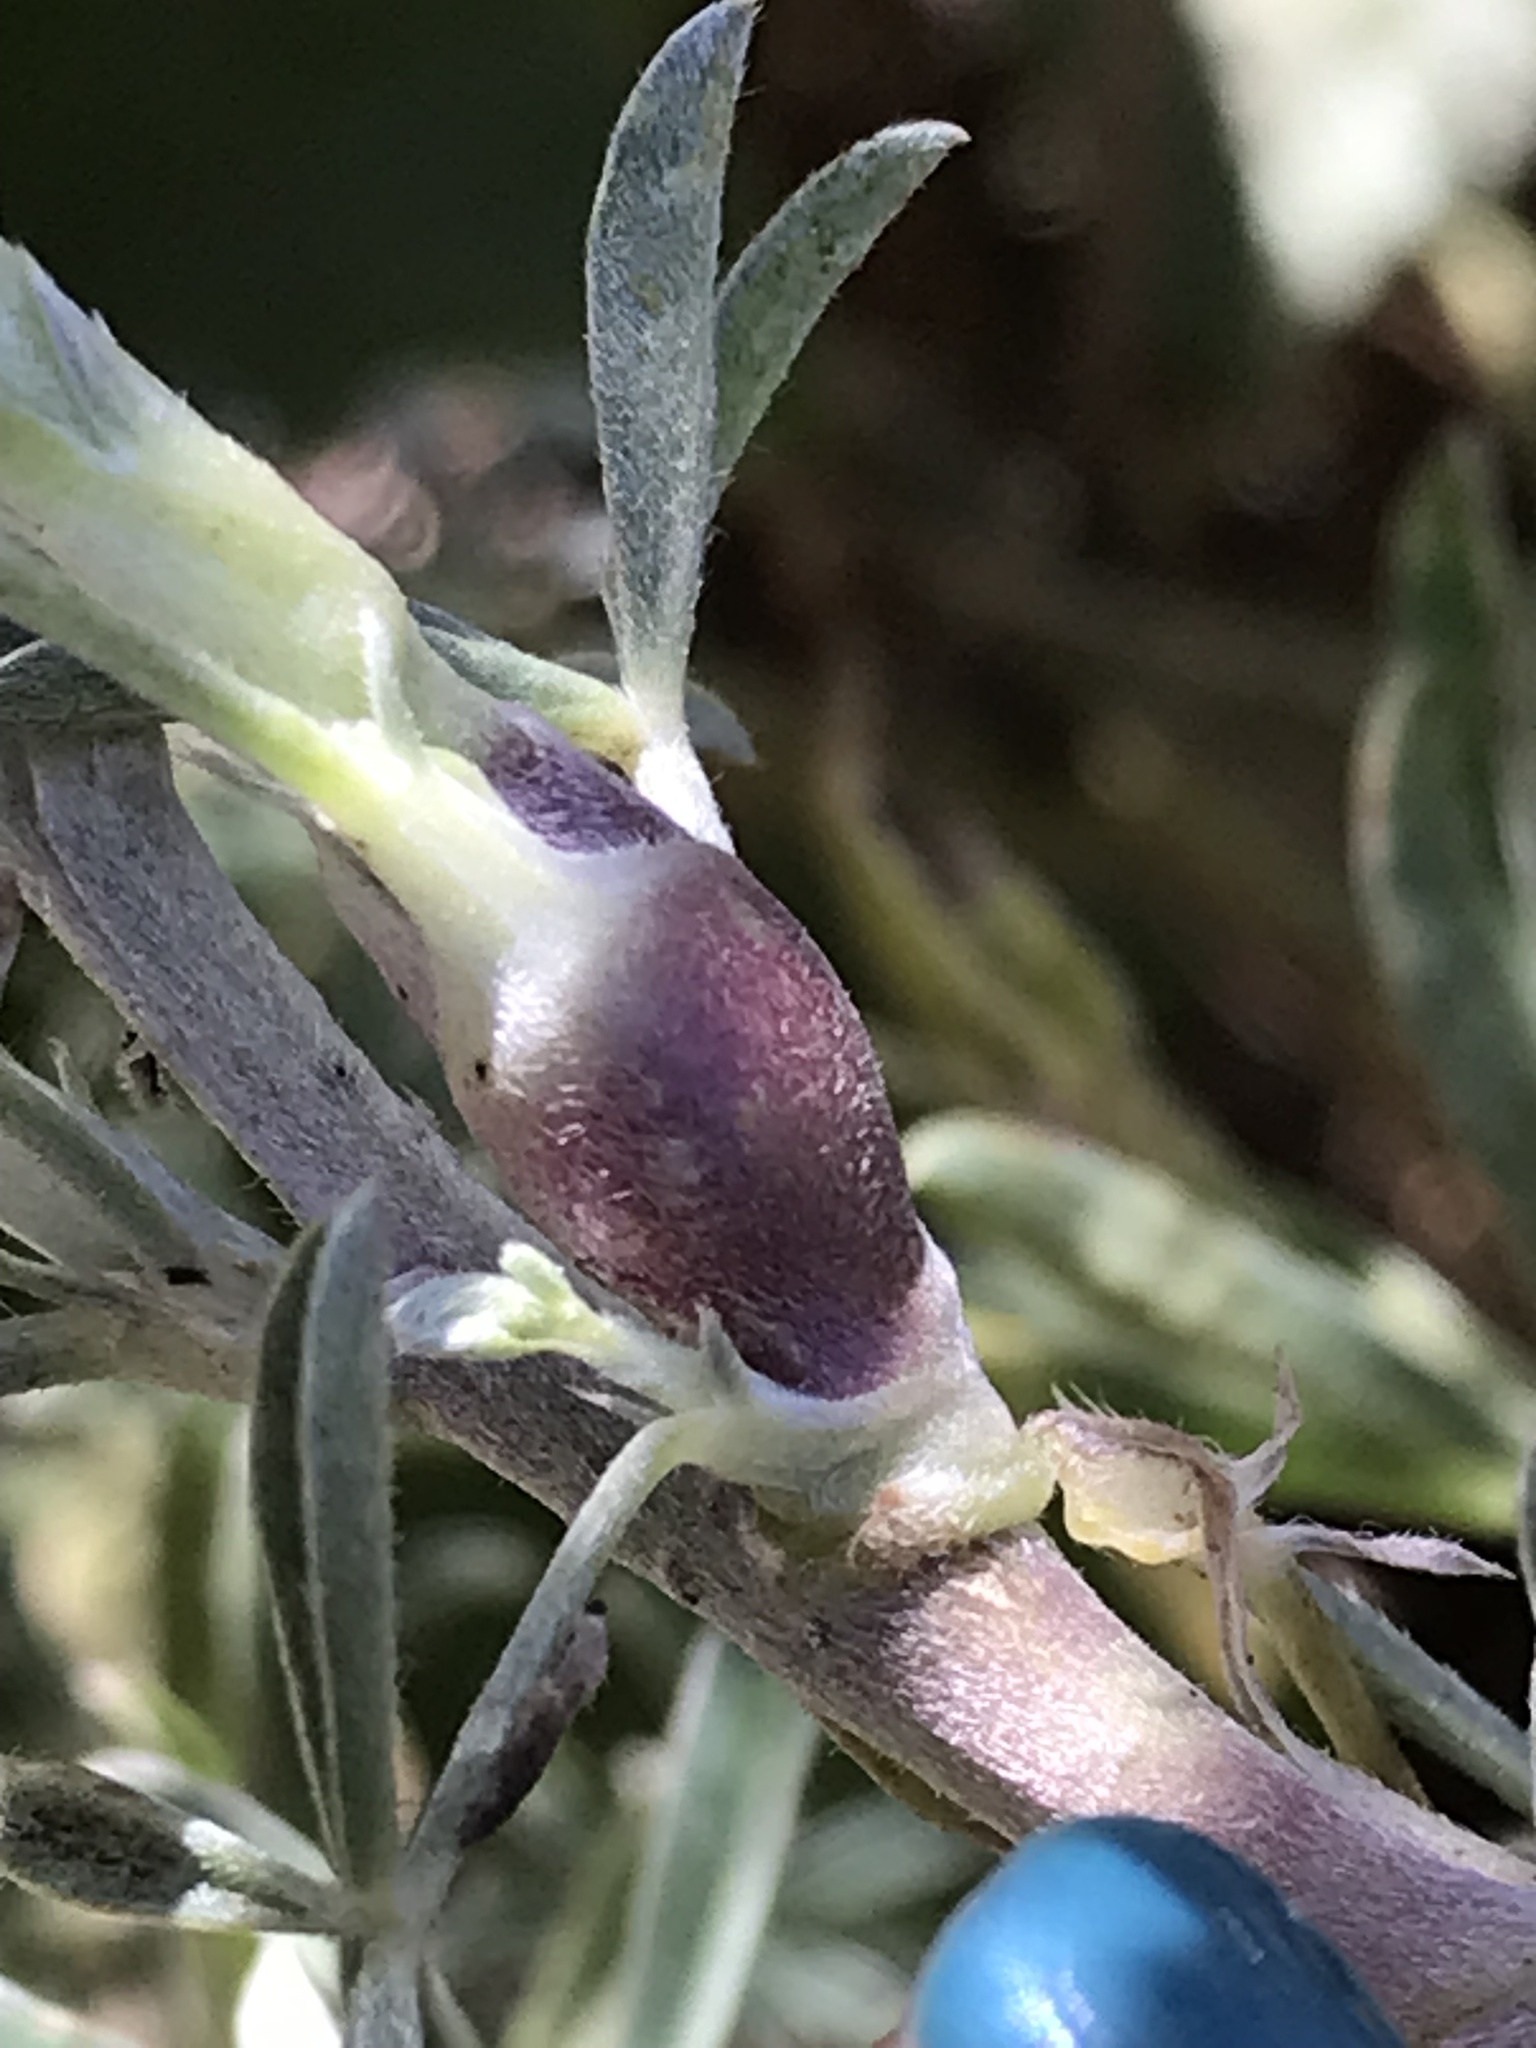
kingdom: Animalia
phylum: Arthropoda
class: Insecta
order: Diptera
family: Cecidomyiidae
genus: Neolasioptera
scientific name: Neolasioptera lupini
